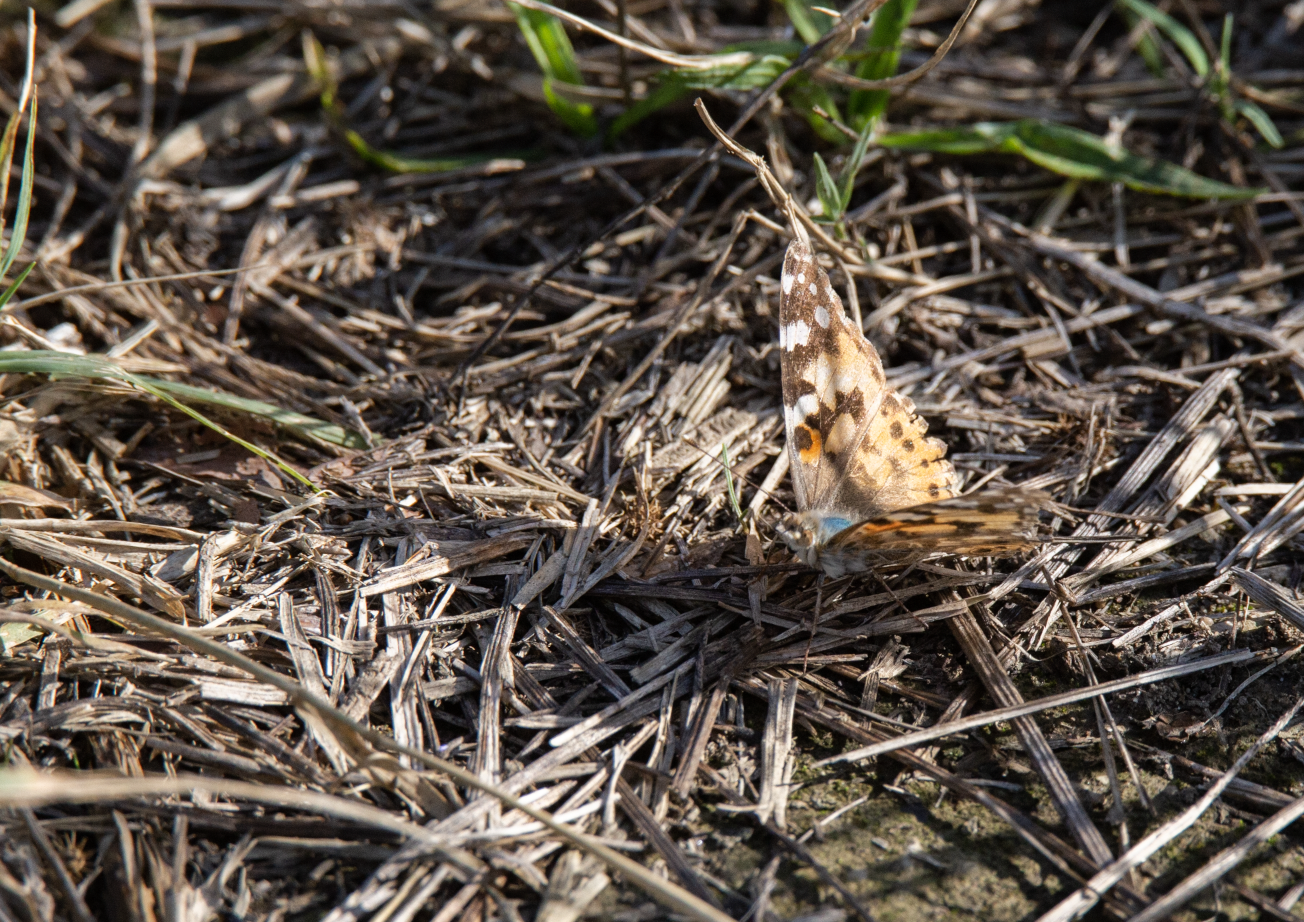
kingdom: Animalia
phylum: Arthropoda
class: Insecta
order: Lepidoptera
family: Nymphalidae
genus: Vanessa
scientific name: Vanessa cardui
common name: Painted lady
